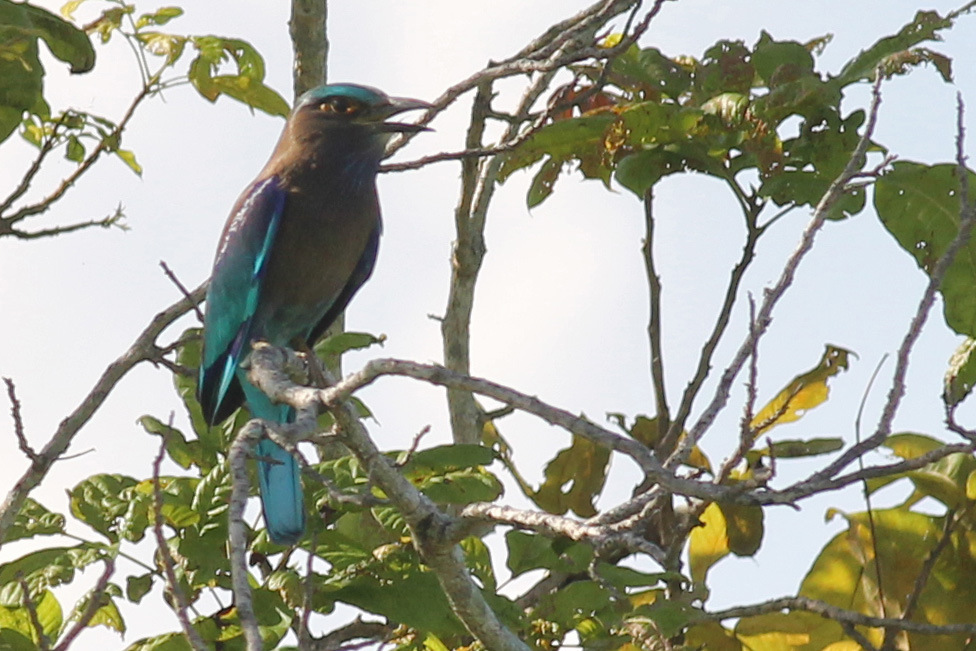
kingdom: Animalia
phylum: Chordata
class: Aves
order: Coraciiformes
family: Coraciidae
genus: Coracias
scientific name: Coracias affinis
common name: Indochinese roller
